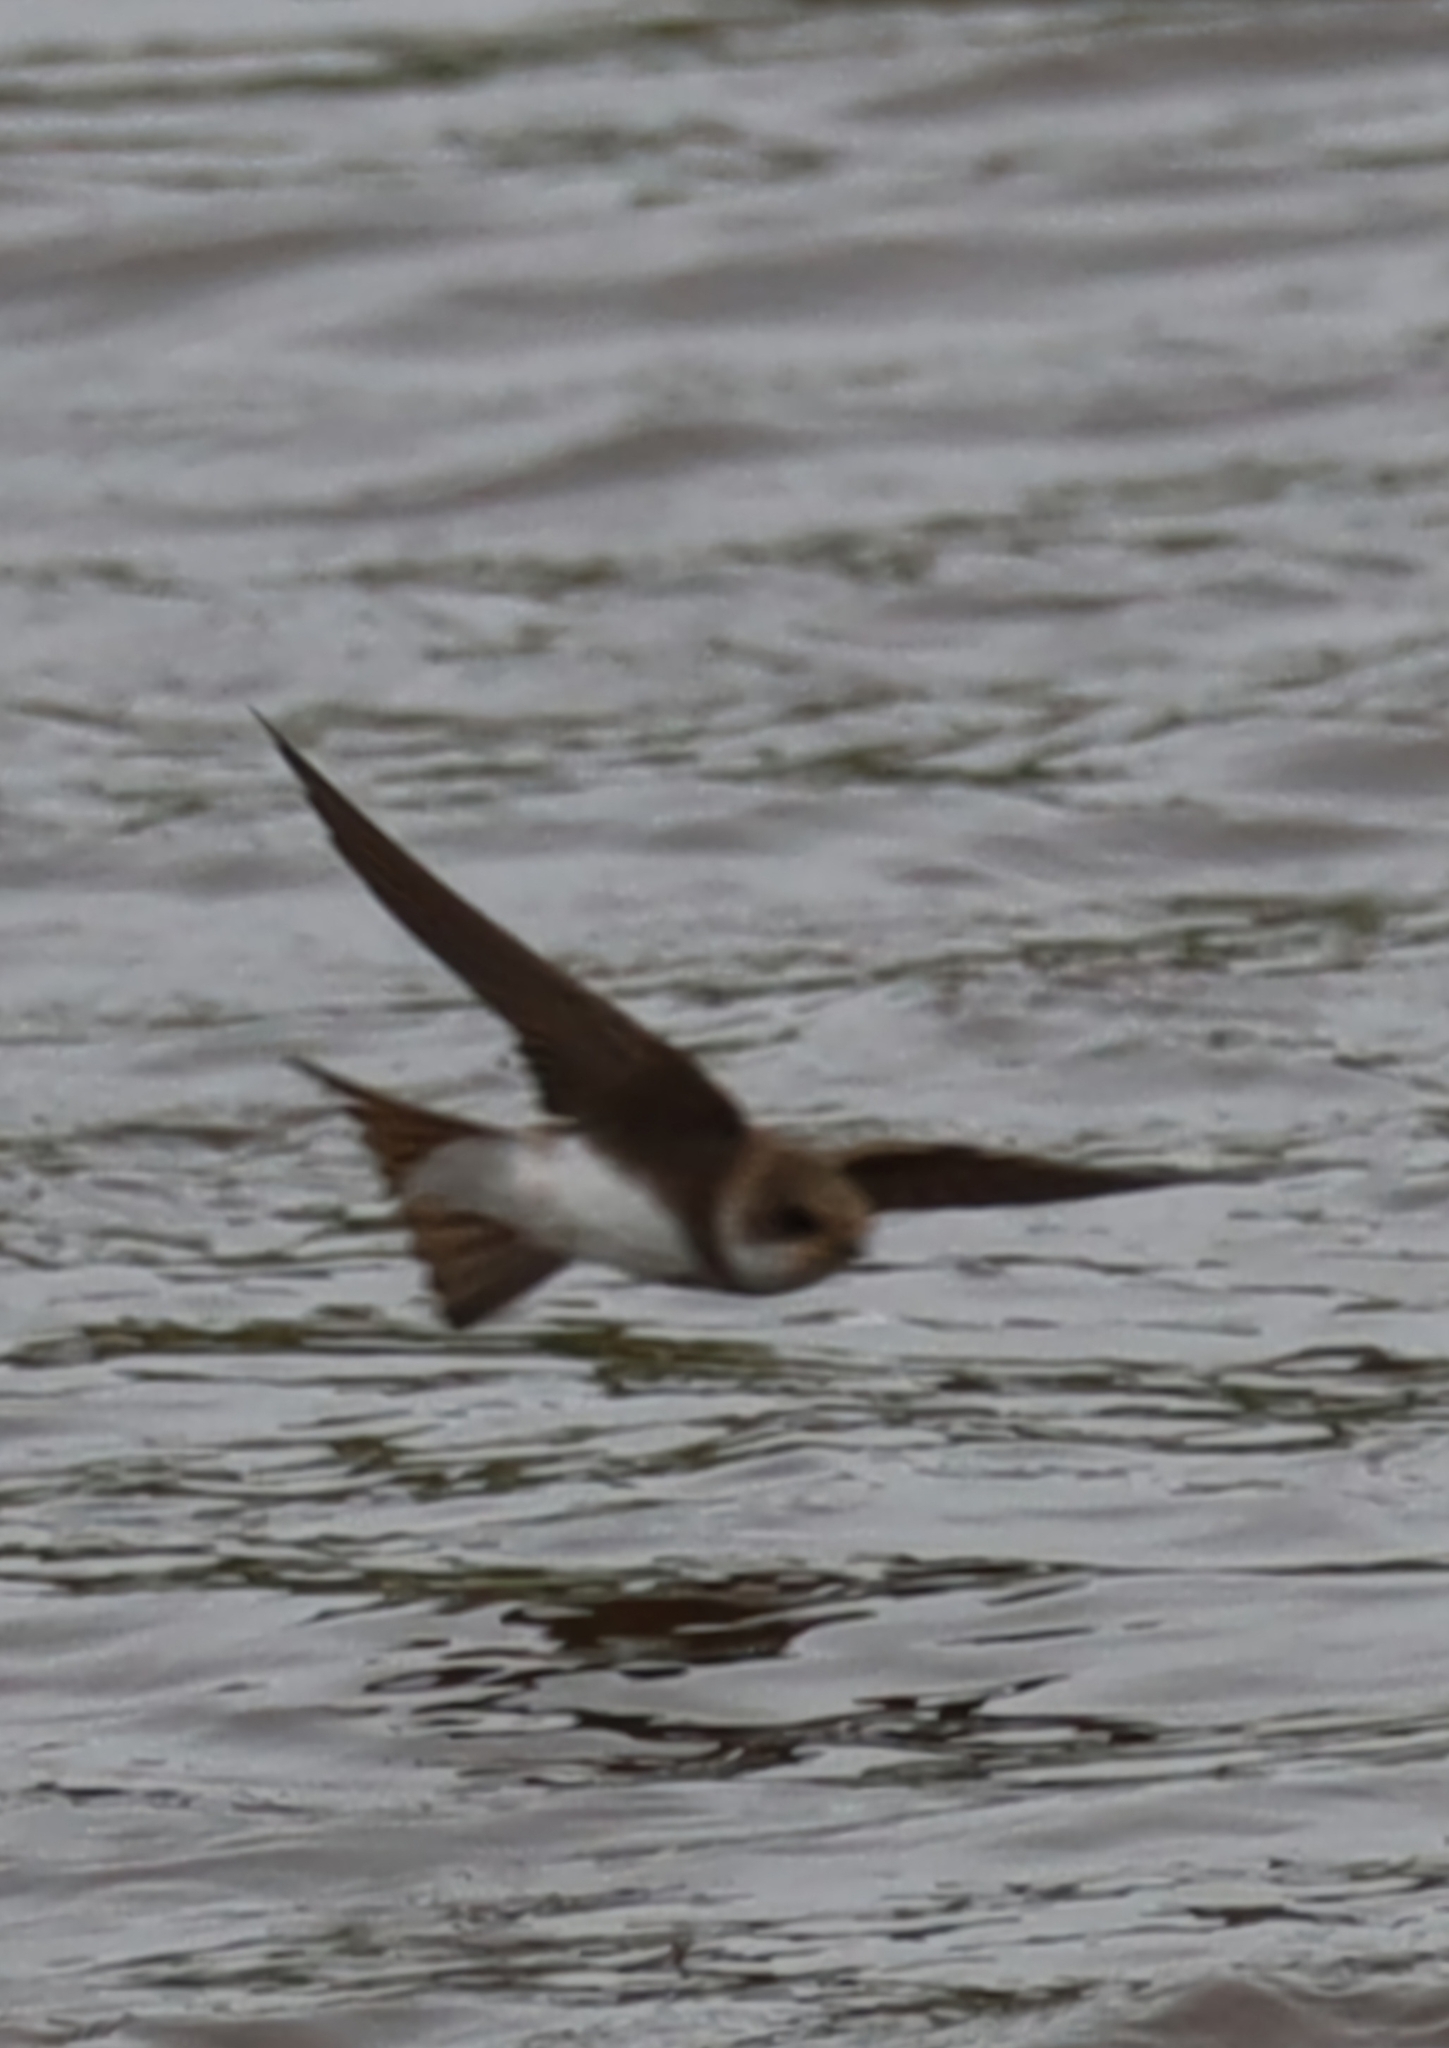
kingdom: Animalia
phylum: Chordata
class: Aves
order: Passeriformes
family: Hirundinidae
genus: Riparia
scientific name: Riparia riparia
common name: Sand martin
